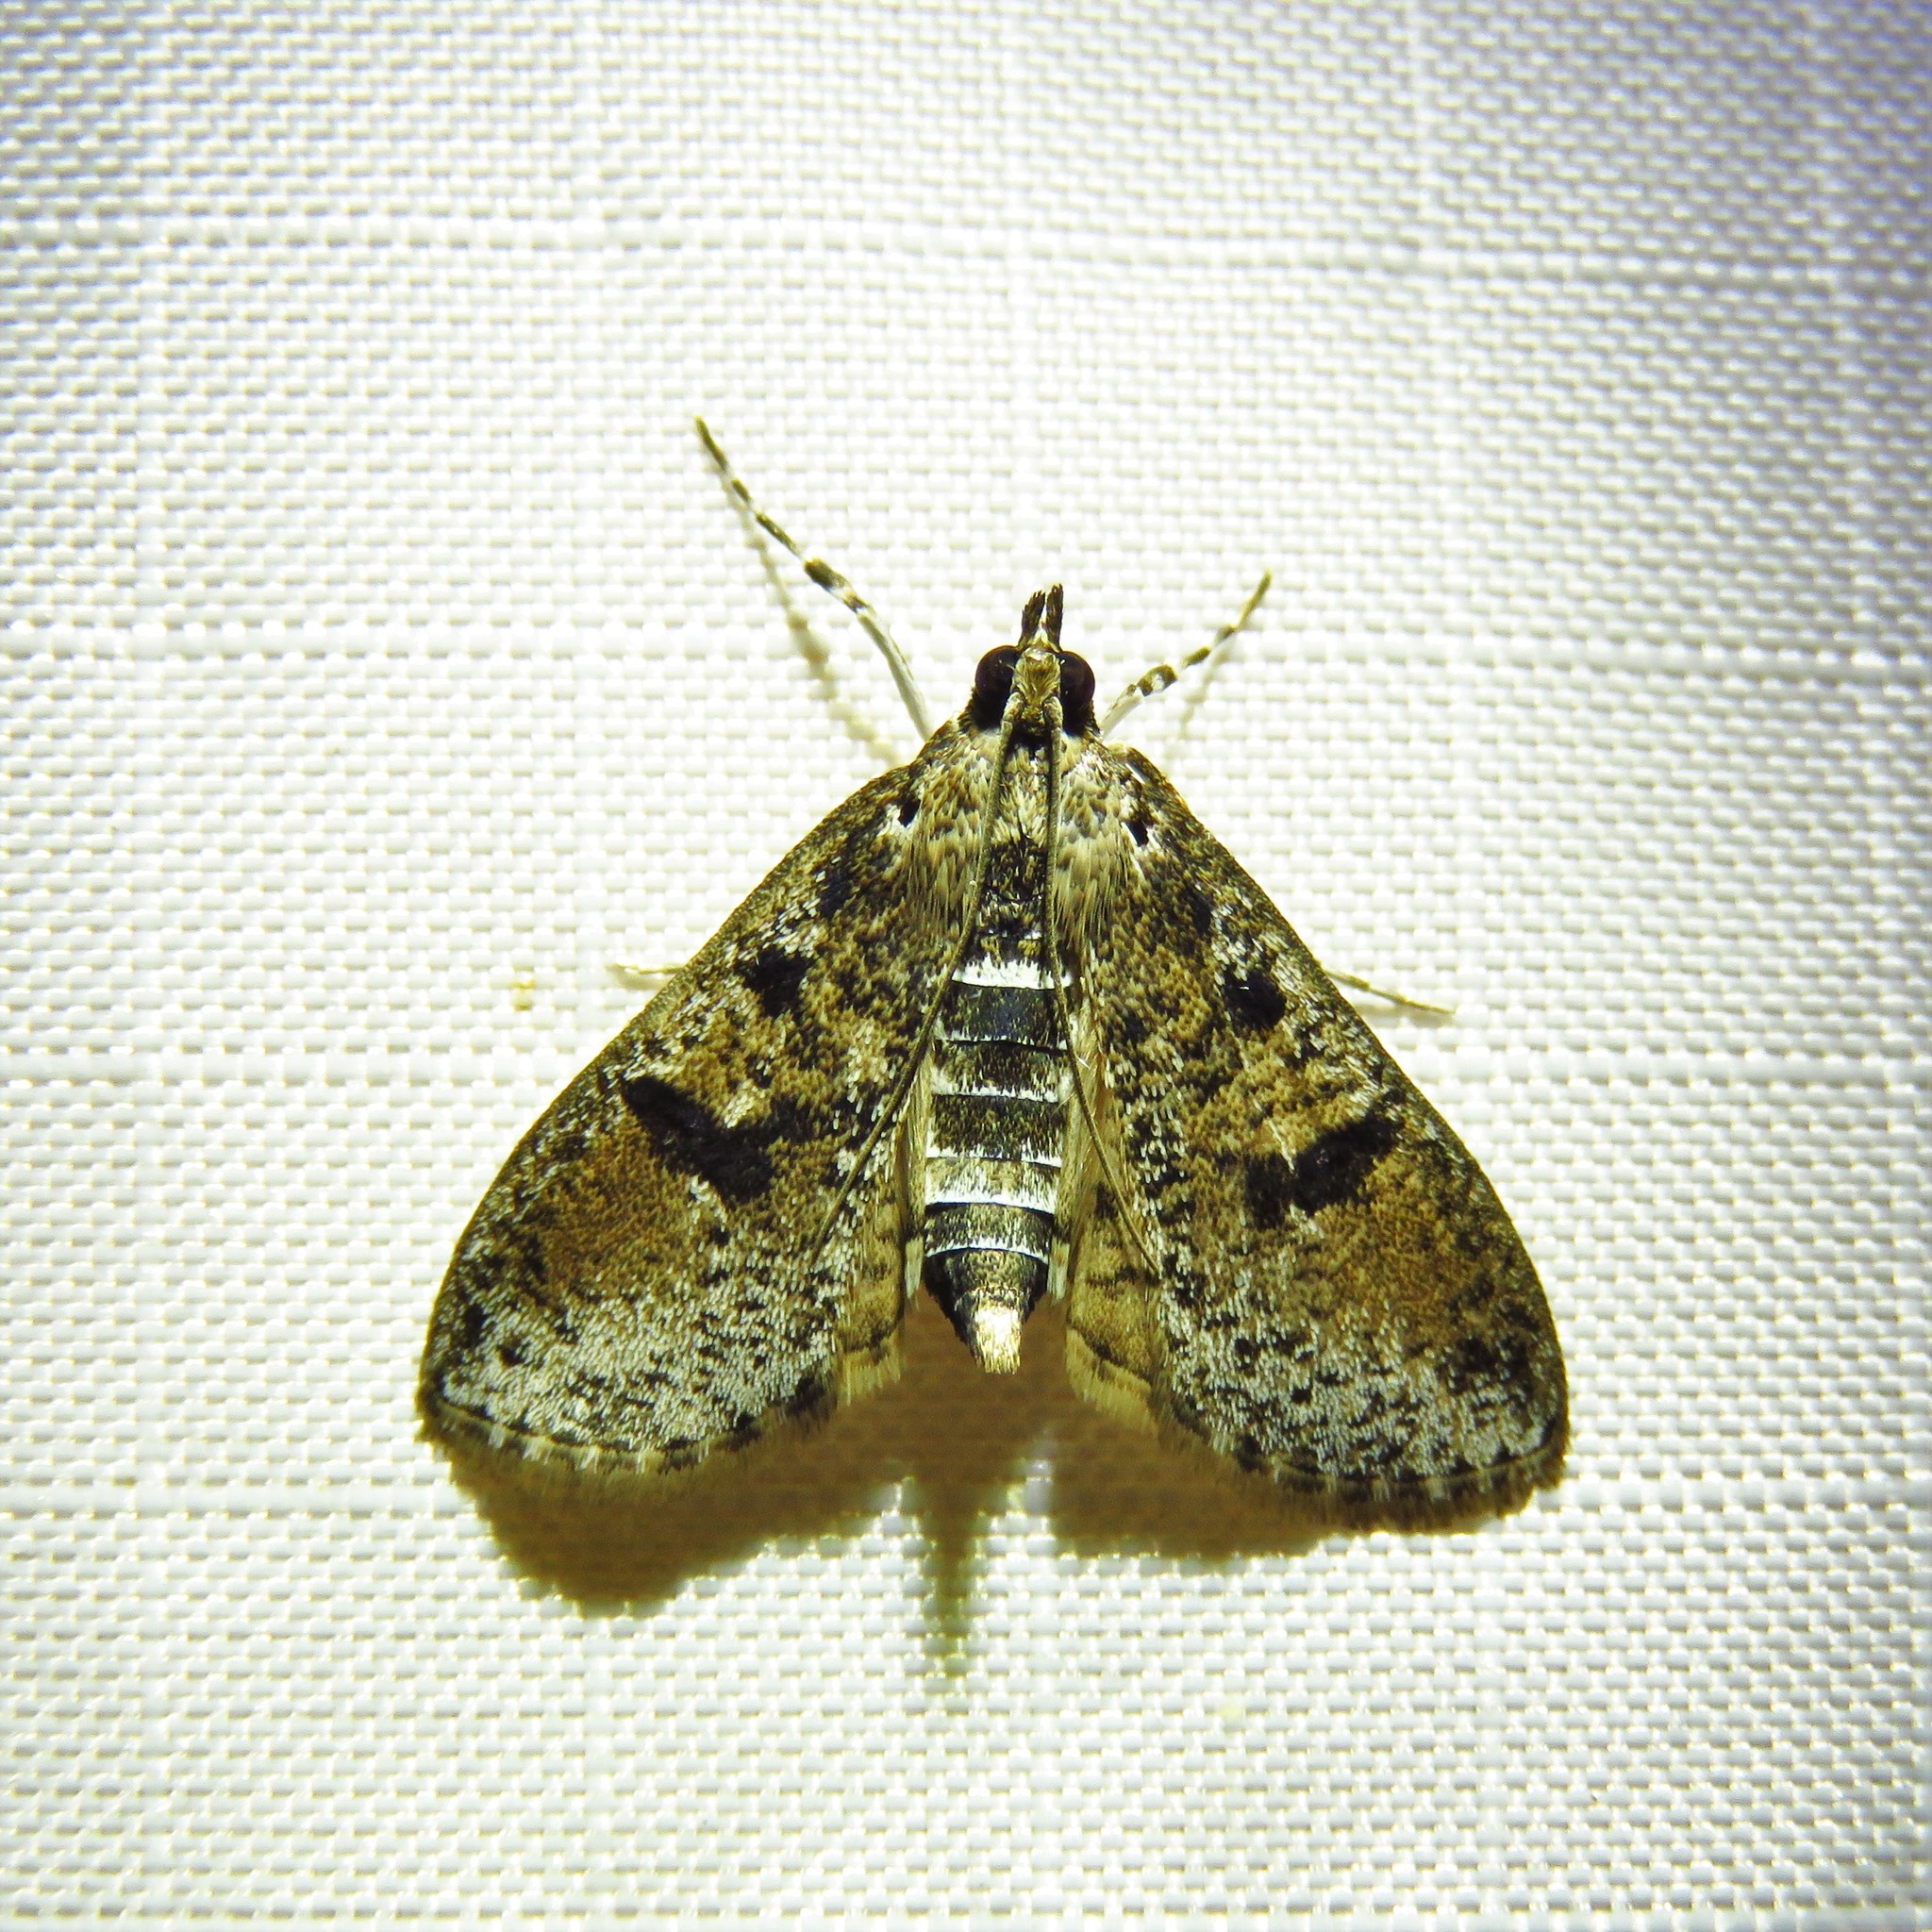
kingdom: Animalia
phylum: Arthropoda
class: Insecta
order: Lepidoptera
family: Crambidae
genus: Palpita
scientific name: Palpita magniferalis
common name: Splendid palpita moth
